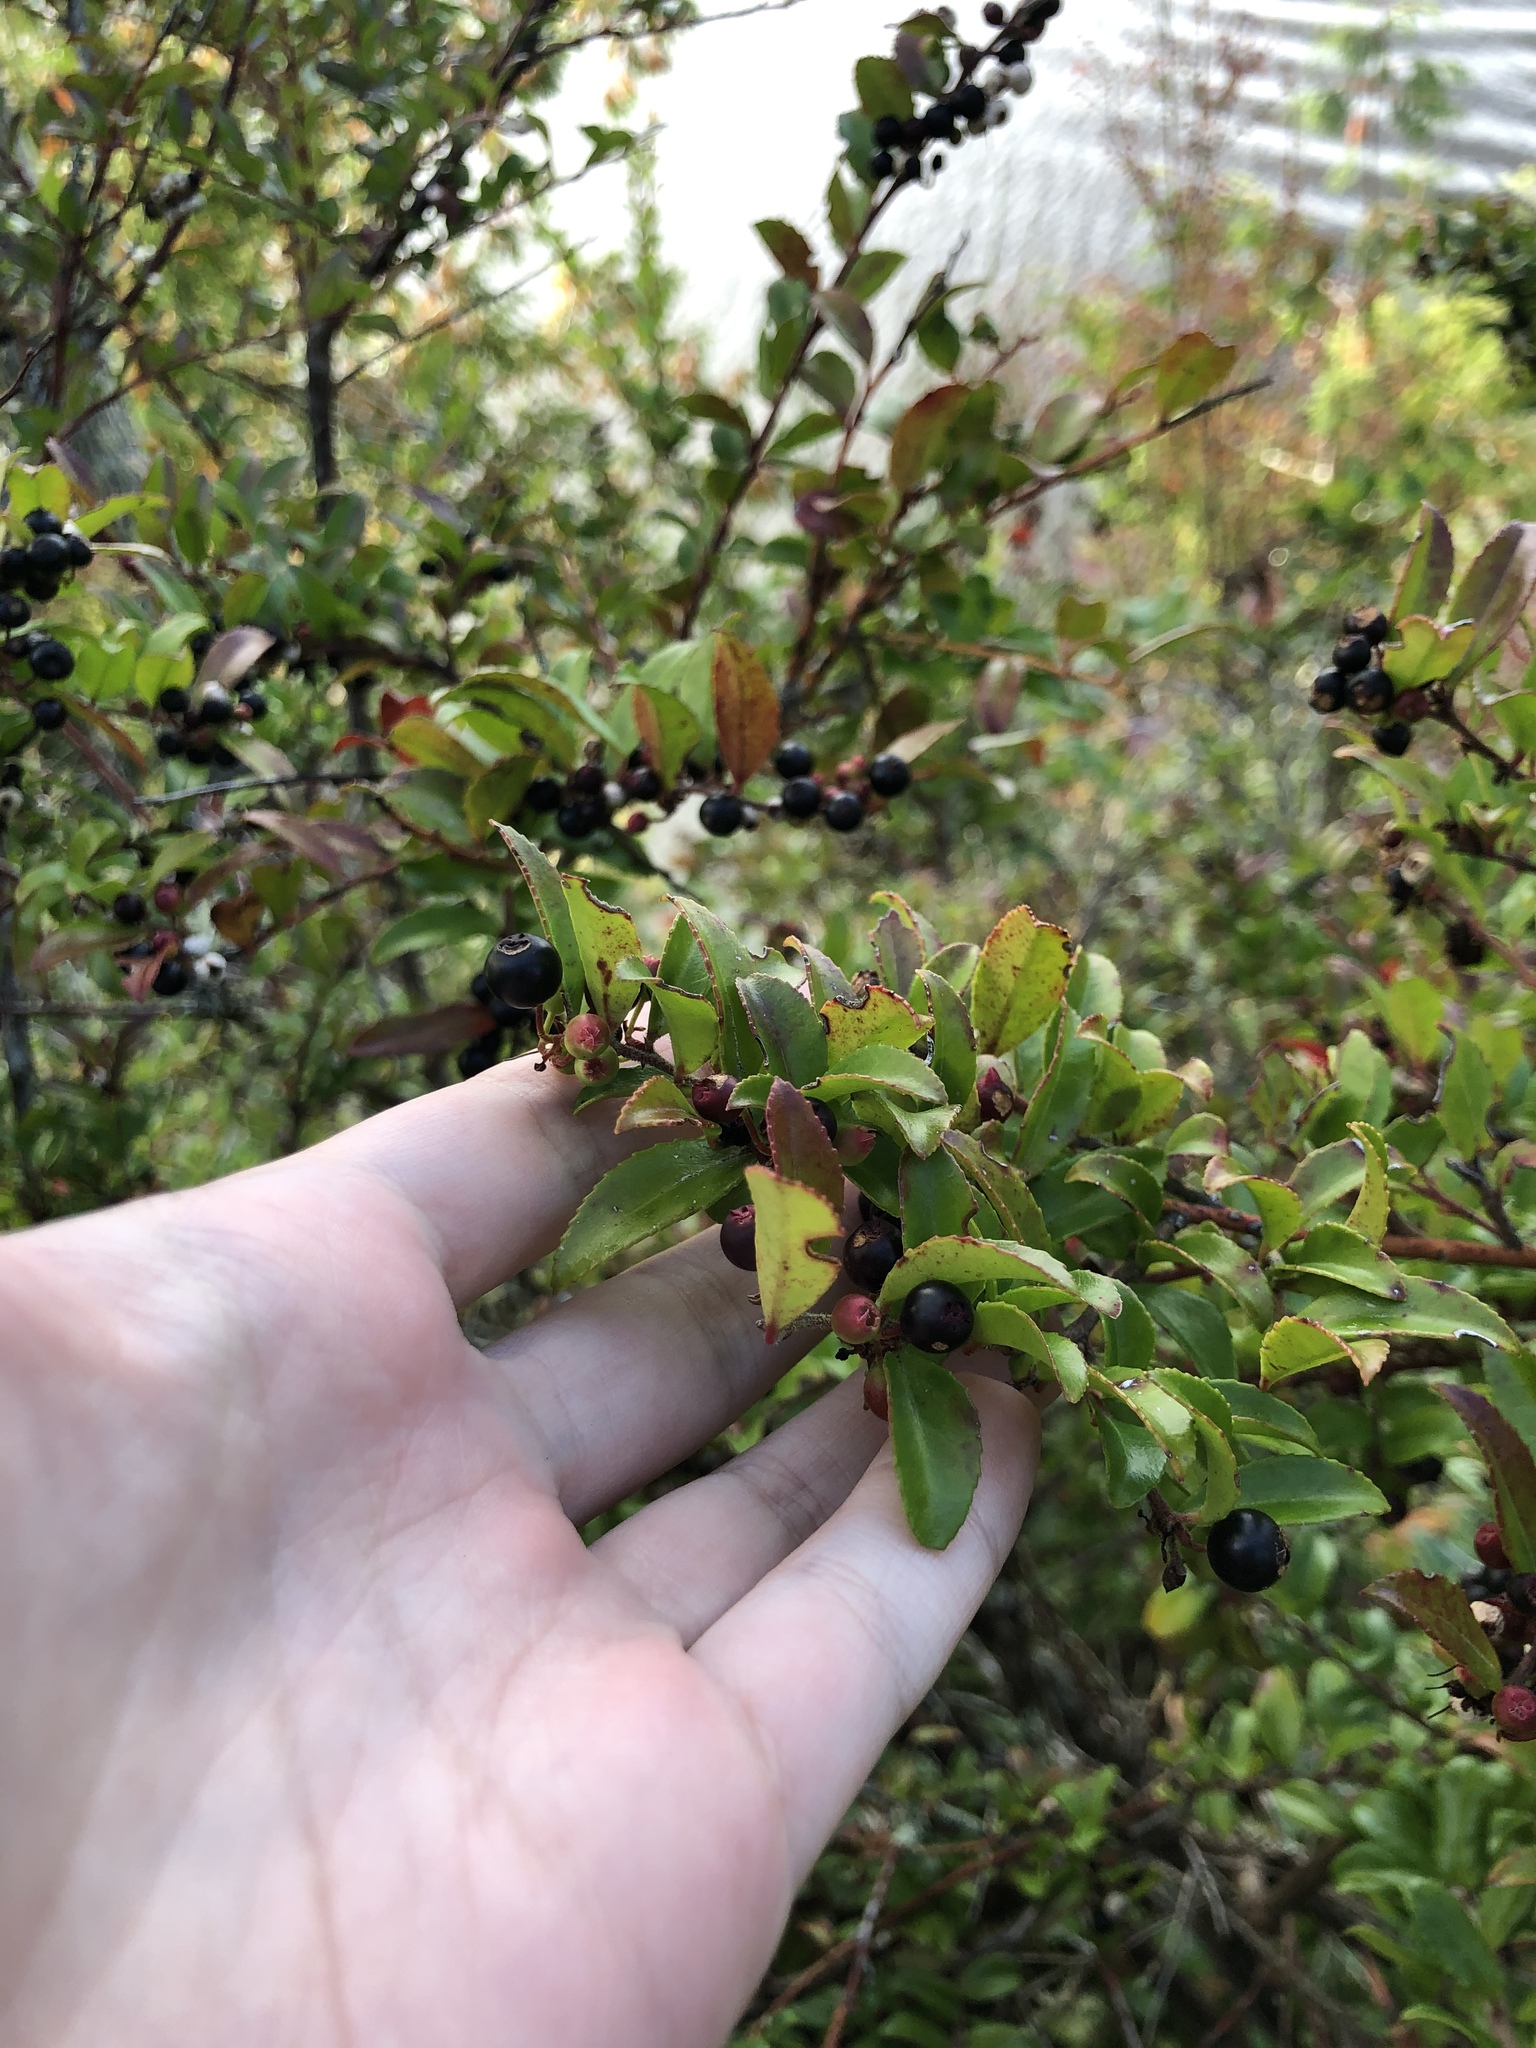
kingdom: Plantae
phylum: Tracheophyta
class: Magnoliopsida
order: Ericales
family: Ericaceae
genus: Vaccinium
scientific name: Vaccinium ovatum
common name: California-huckleberry
